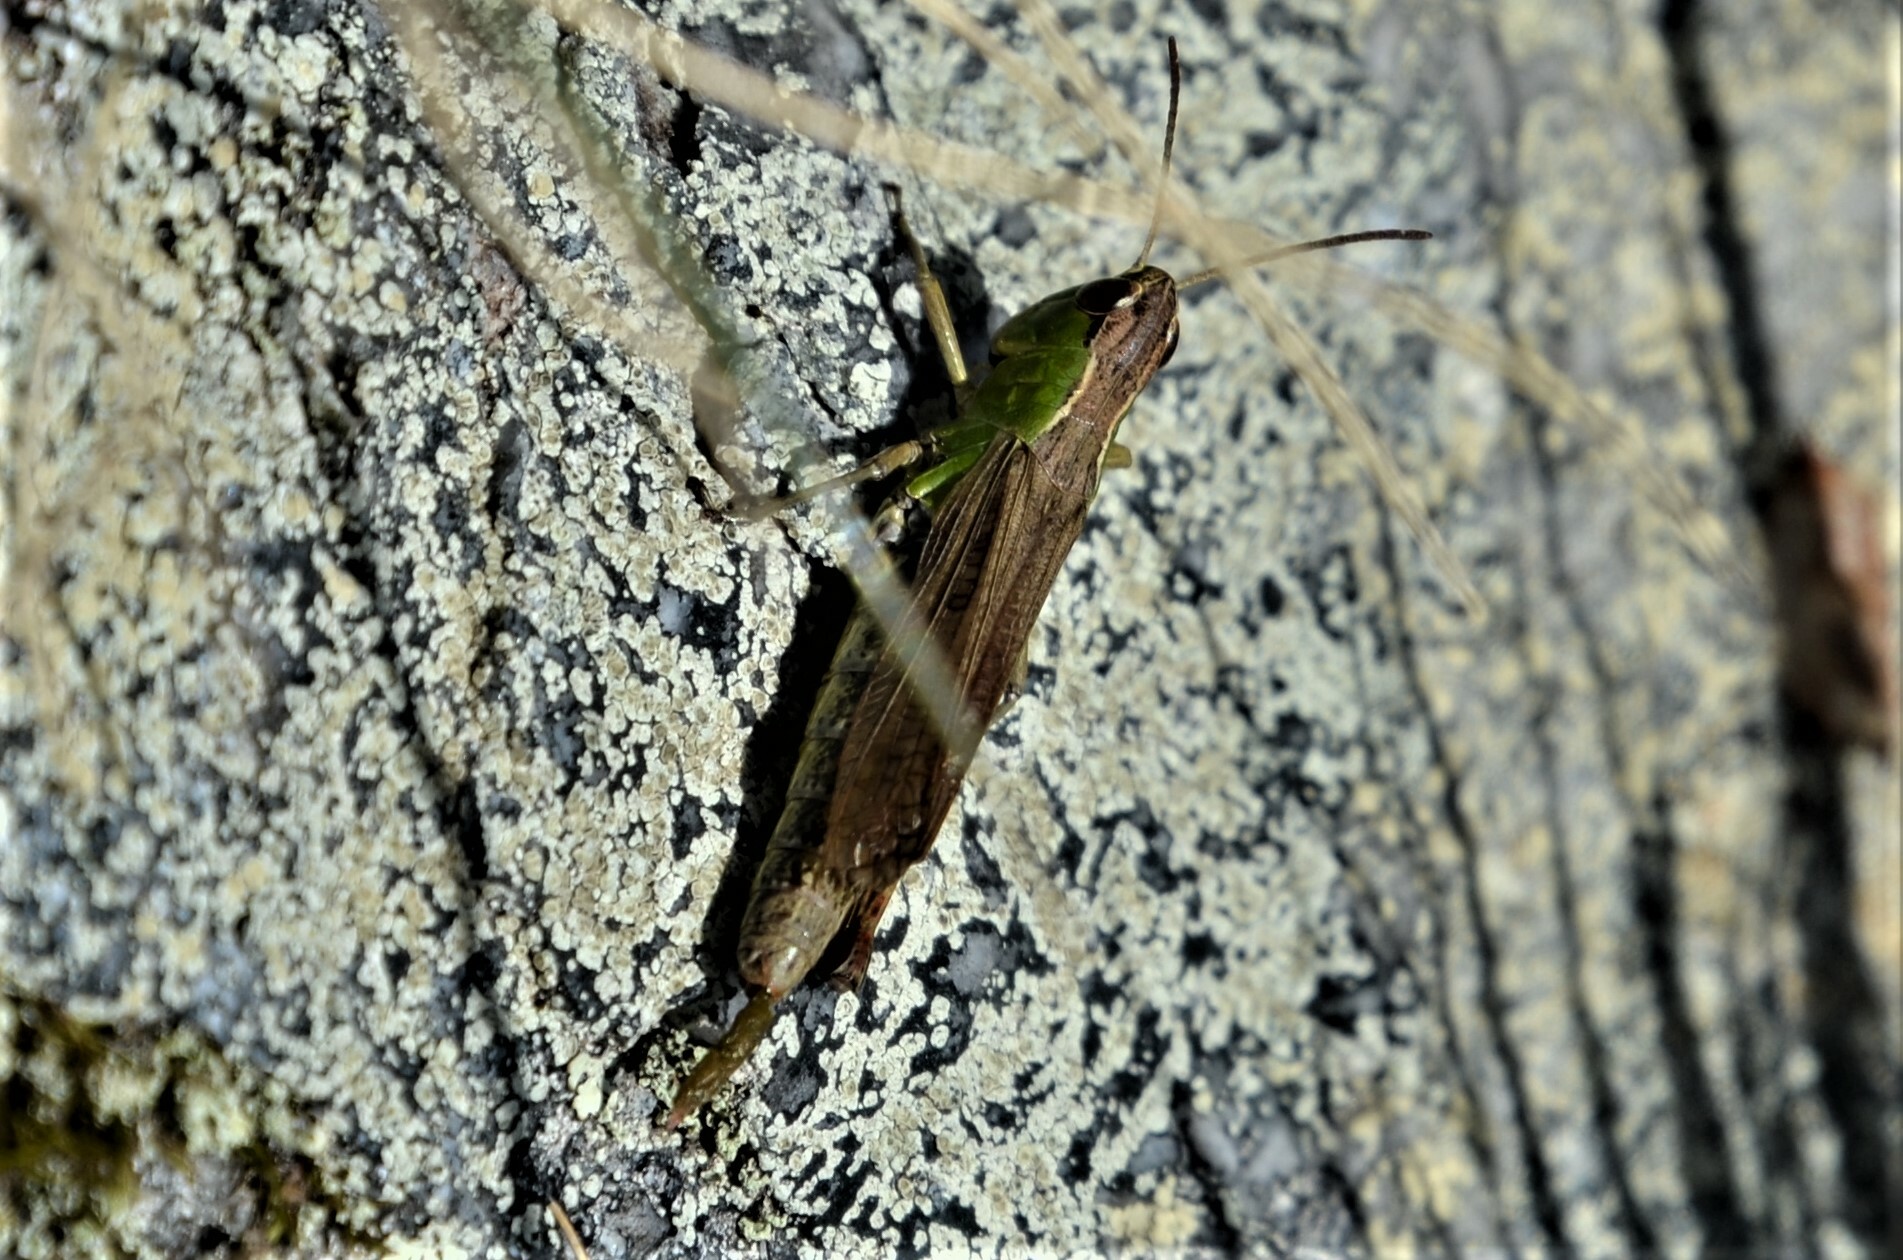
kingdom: Animalia
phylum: Arthropoda
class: Insecta
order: Orthoptera
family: Acrididae
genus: Pseudochorthippus
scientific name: Pseudochorthippus parallelus
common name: Meadow grasshopper
